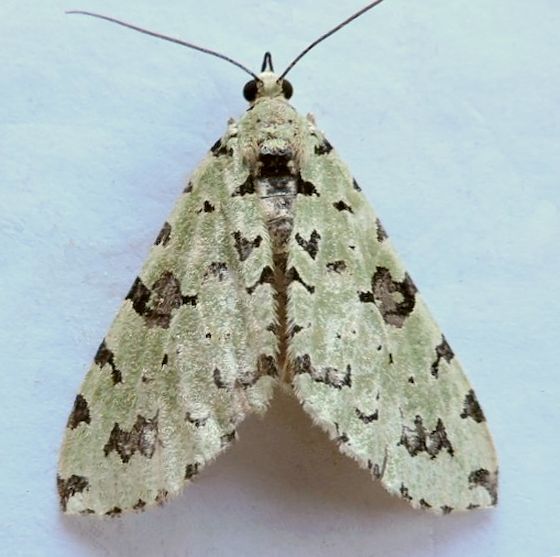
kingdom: Animalia
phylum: Arthropoda
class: Insecta
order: Lepidoptera
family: Geometridae
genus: Hydriomena
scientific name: Hydriomena costipunctata
